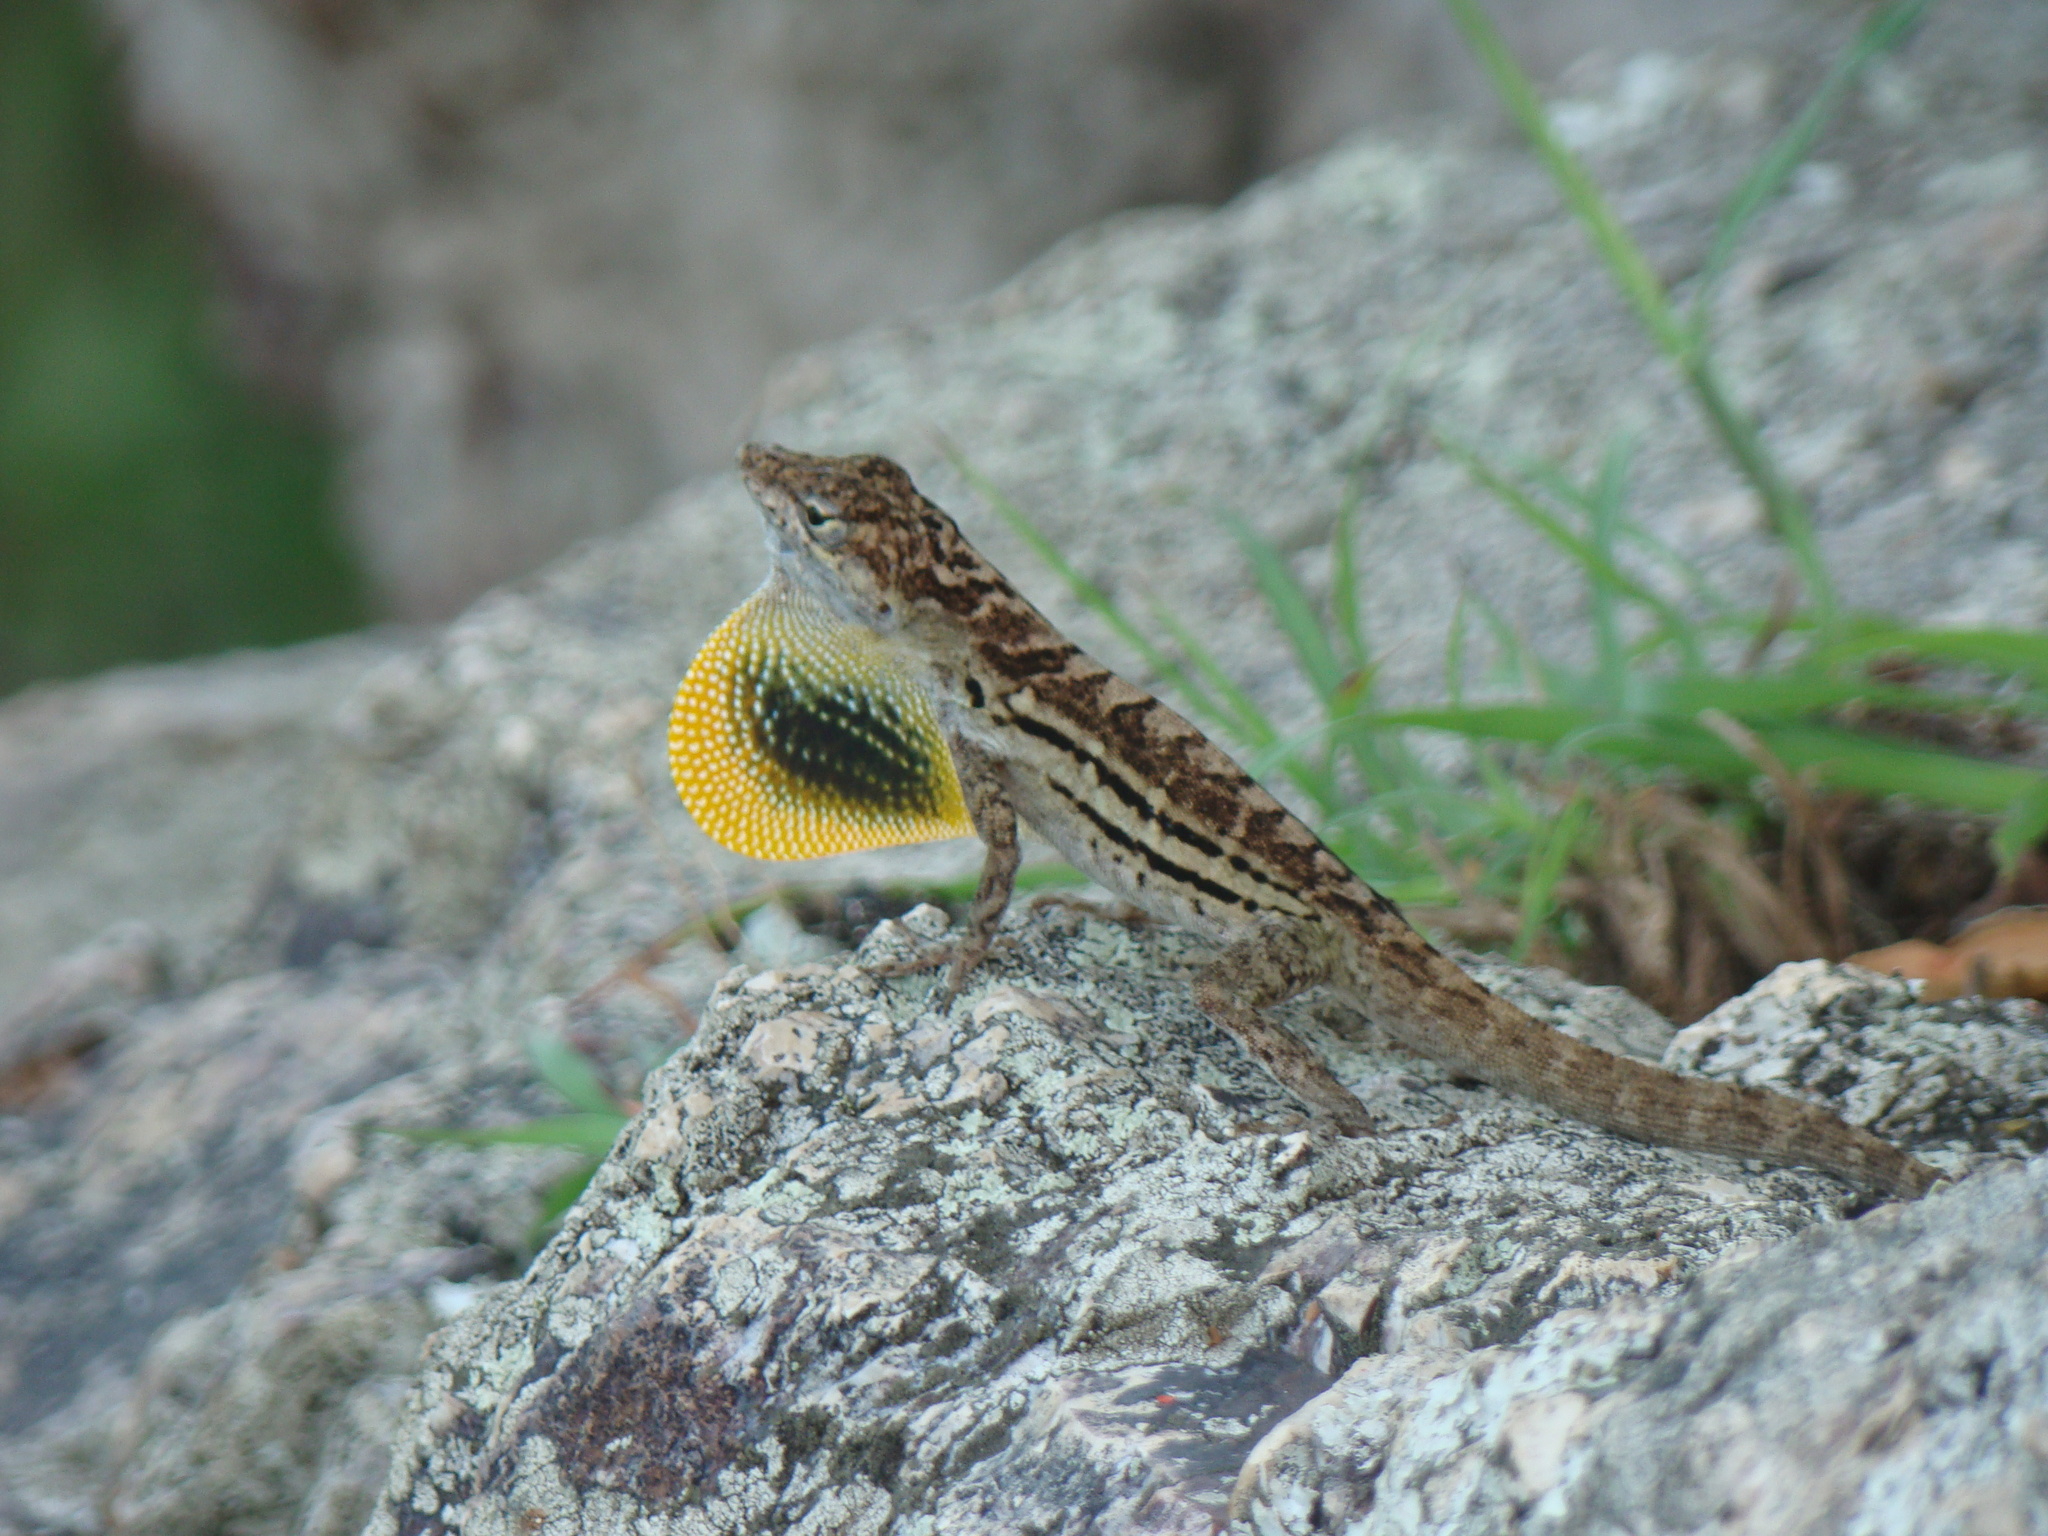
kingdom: Animalia
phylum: Chordata
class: Squamata
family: Dactyloidae
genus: Anolis
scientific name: Anolis lineatus
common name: Striped anole
